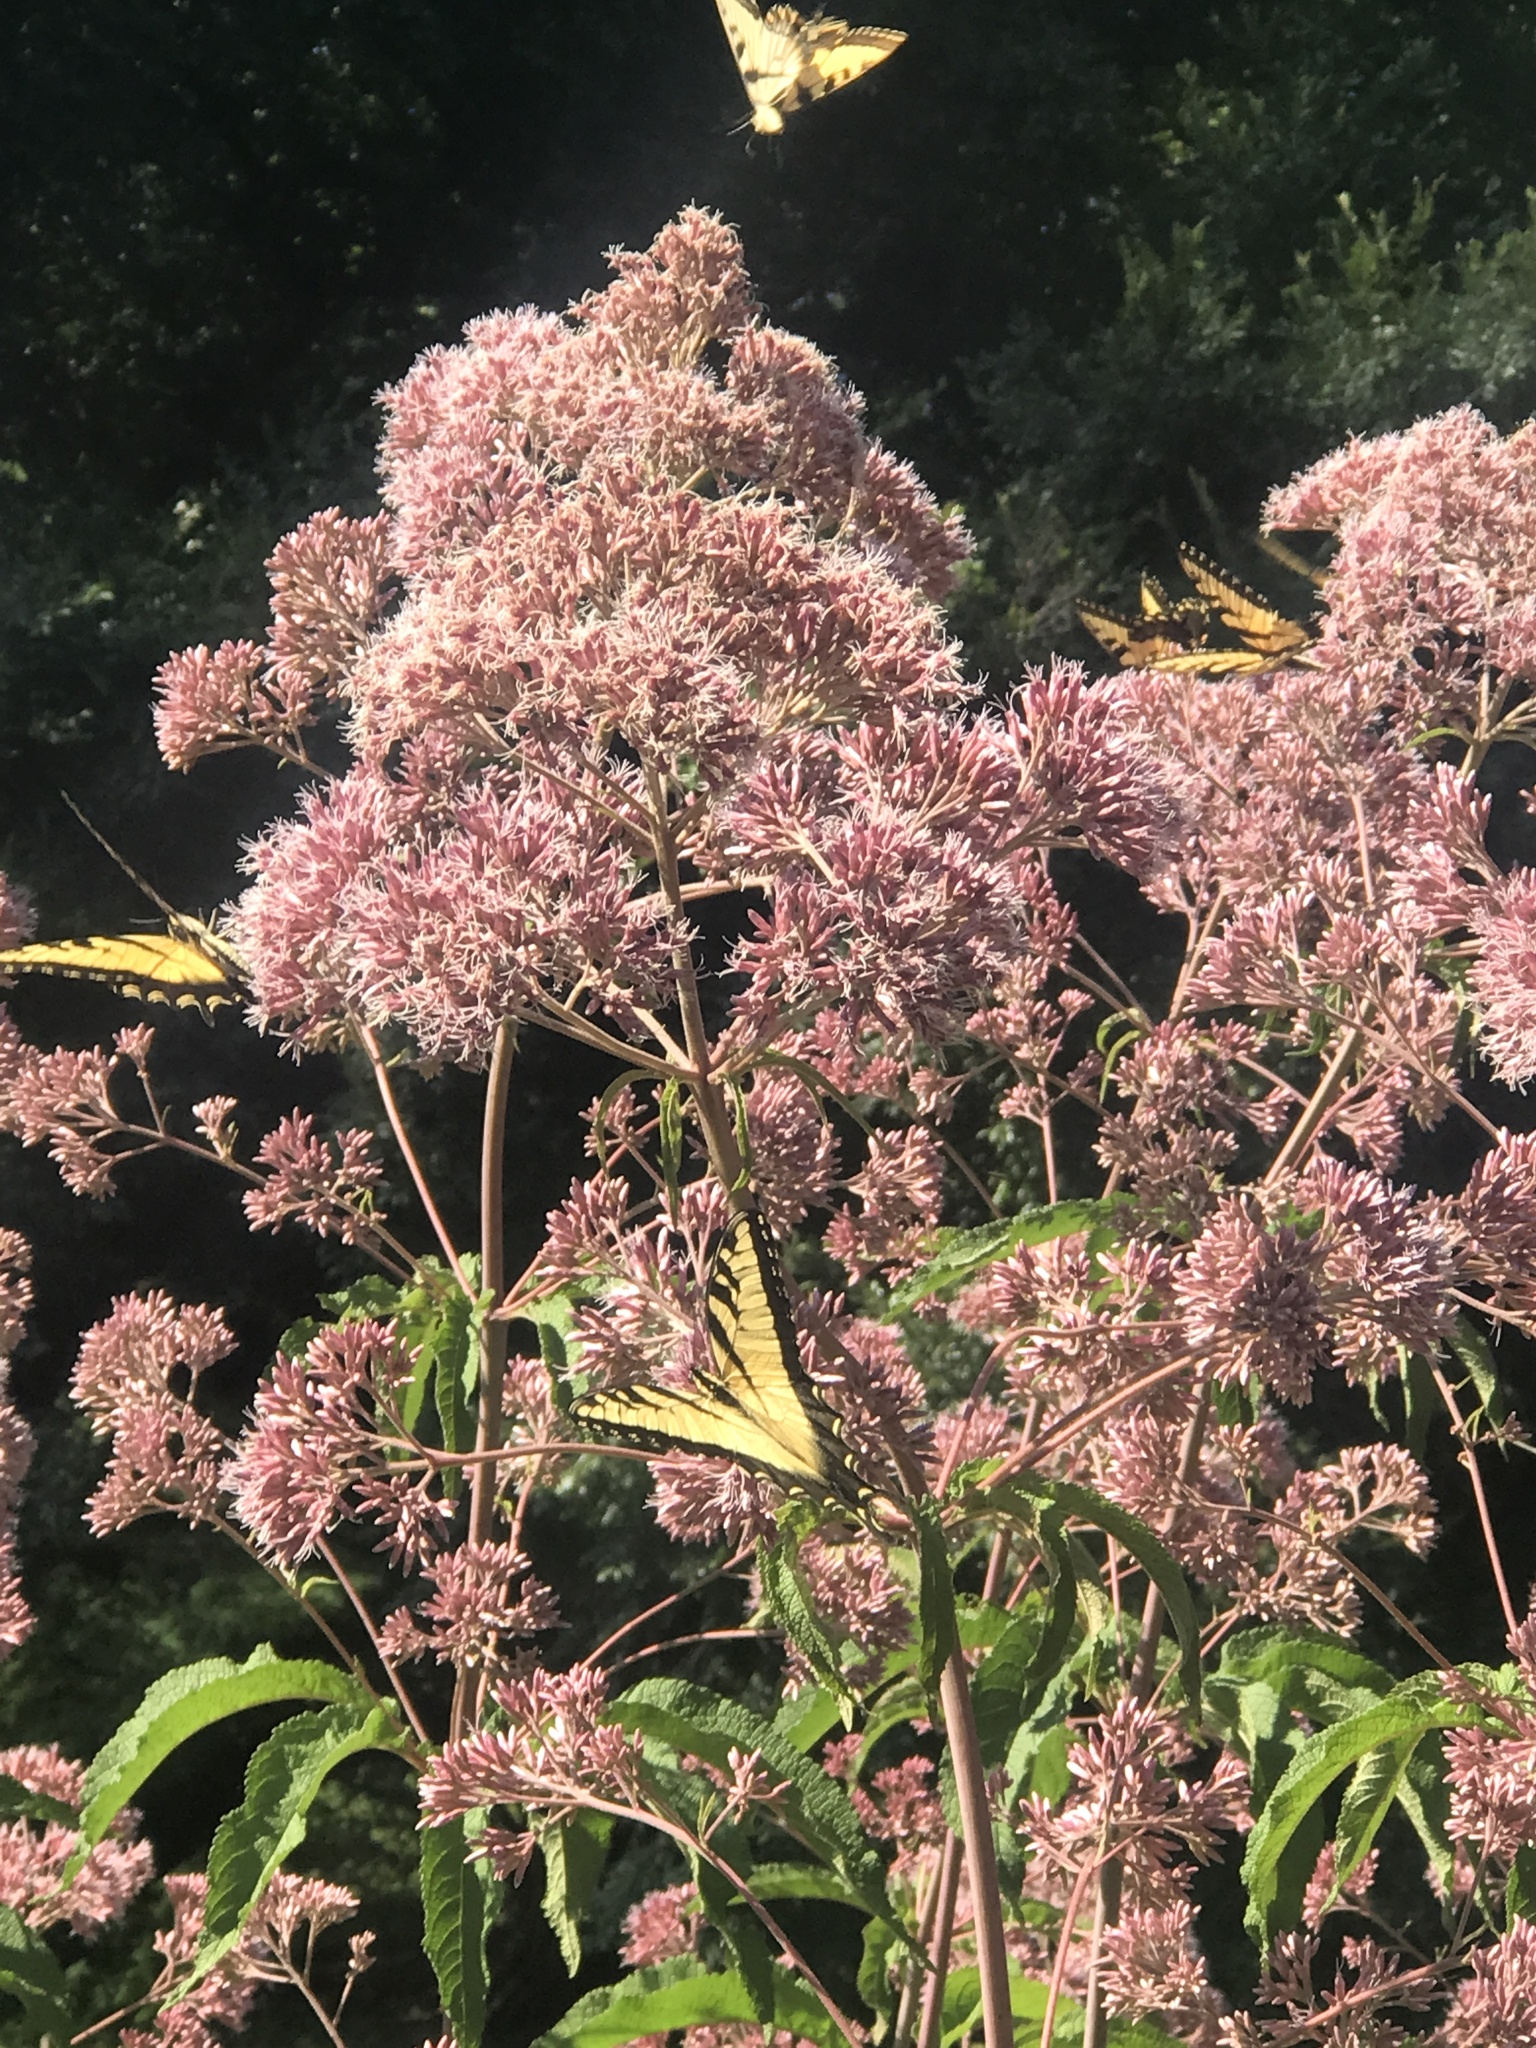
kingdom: Animalia
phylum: Arthropoda
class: Insecta
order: Lepidoptera
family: Papilionidae
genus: Papilio
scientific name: Papilio glaucus
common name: Tiger swallowtail
